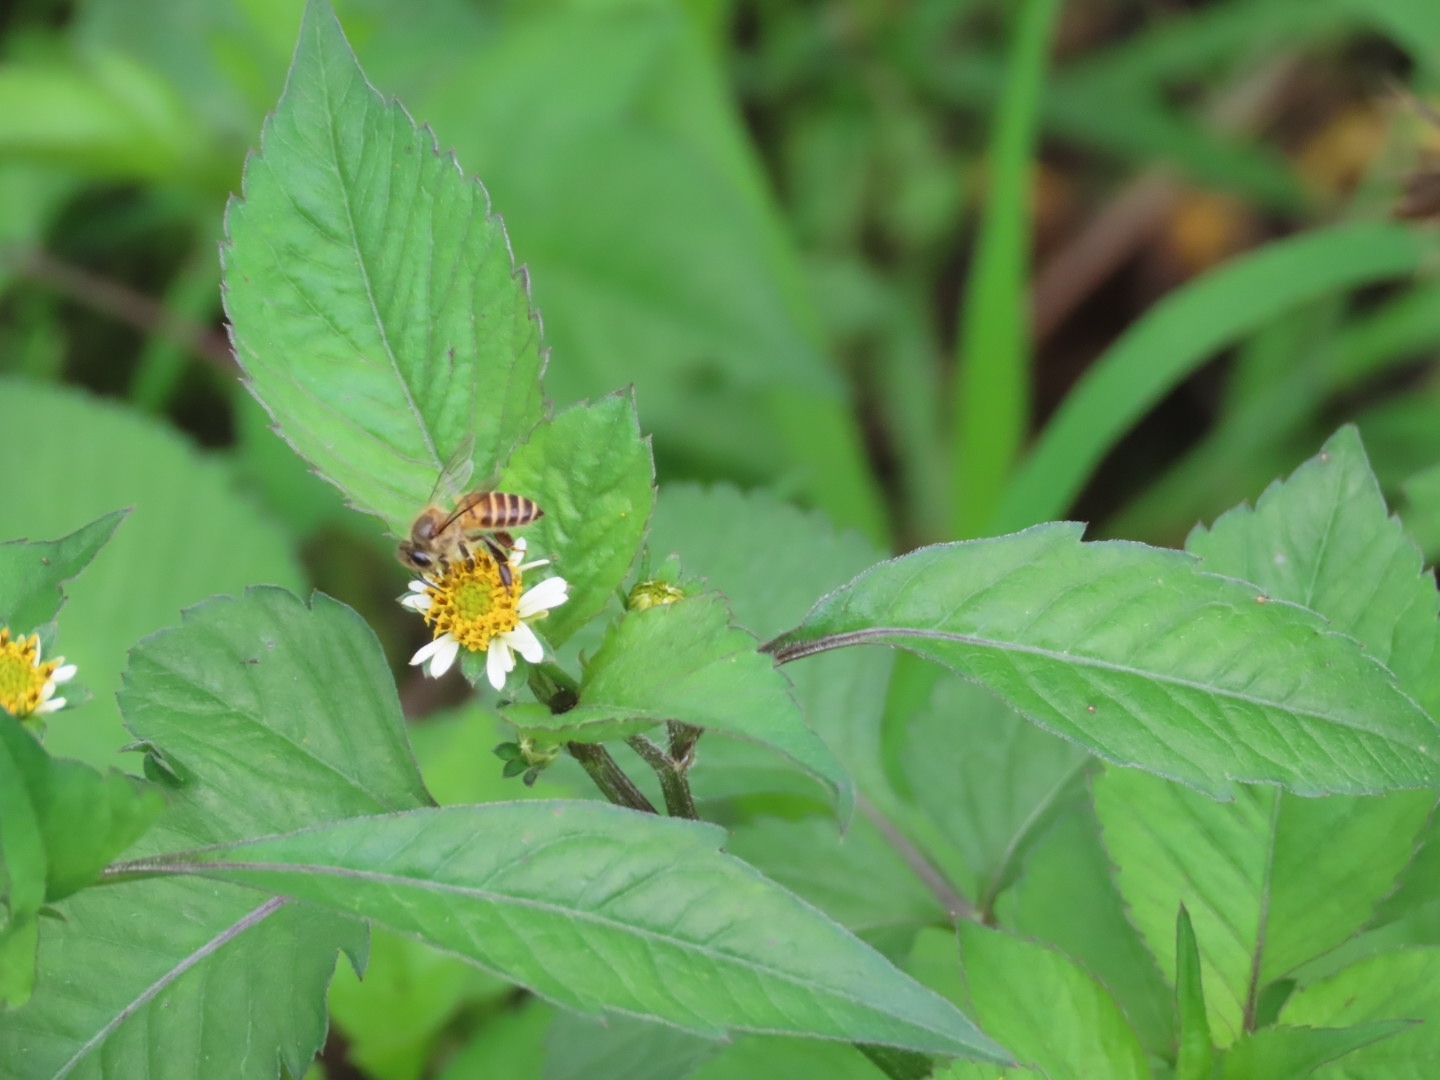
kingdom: Animalia
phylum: Arthropoda
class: Insecta
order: Hymenoptera
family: Apidae
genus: Apis
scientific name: Apis cerana
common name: Honey bee
